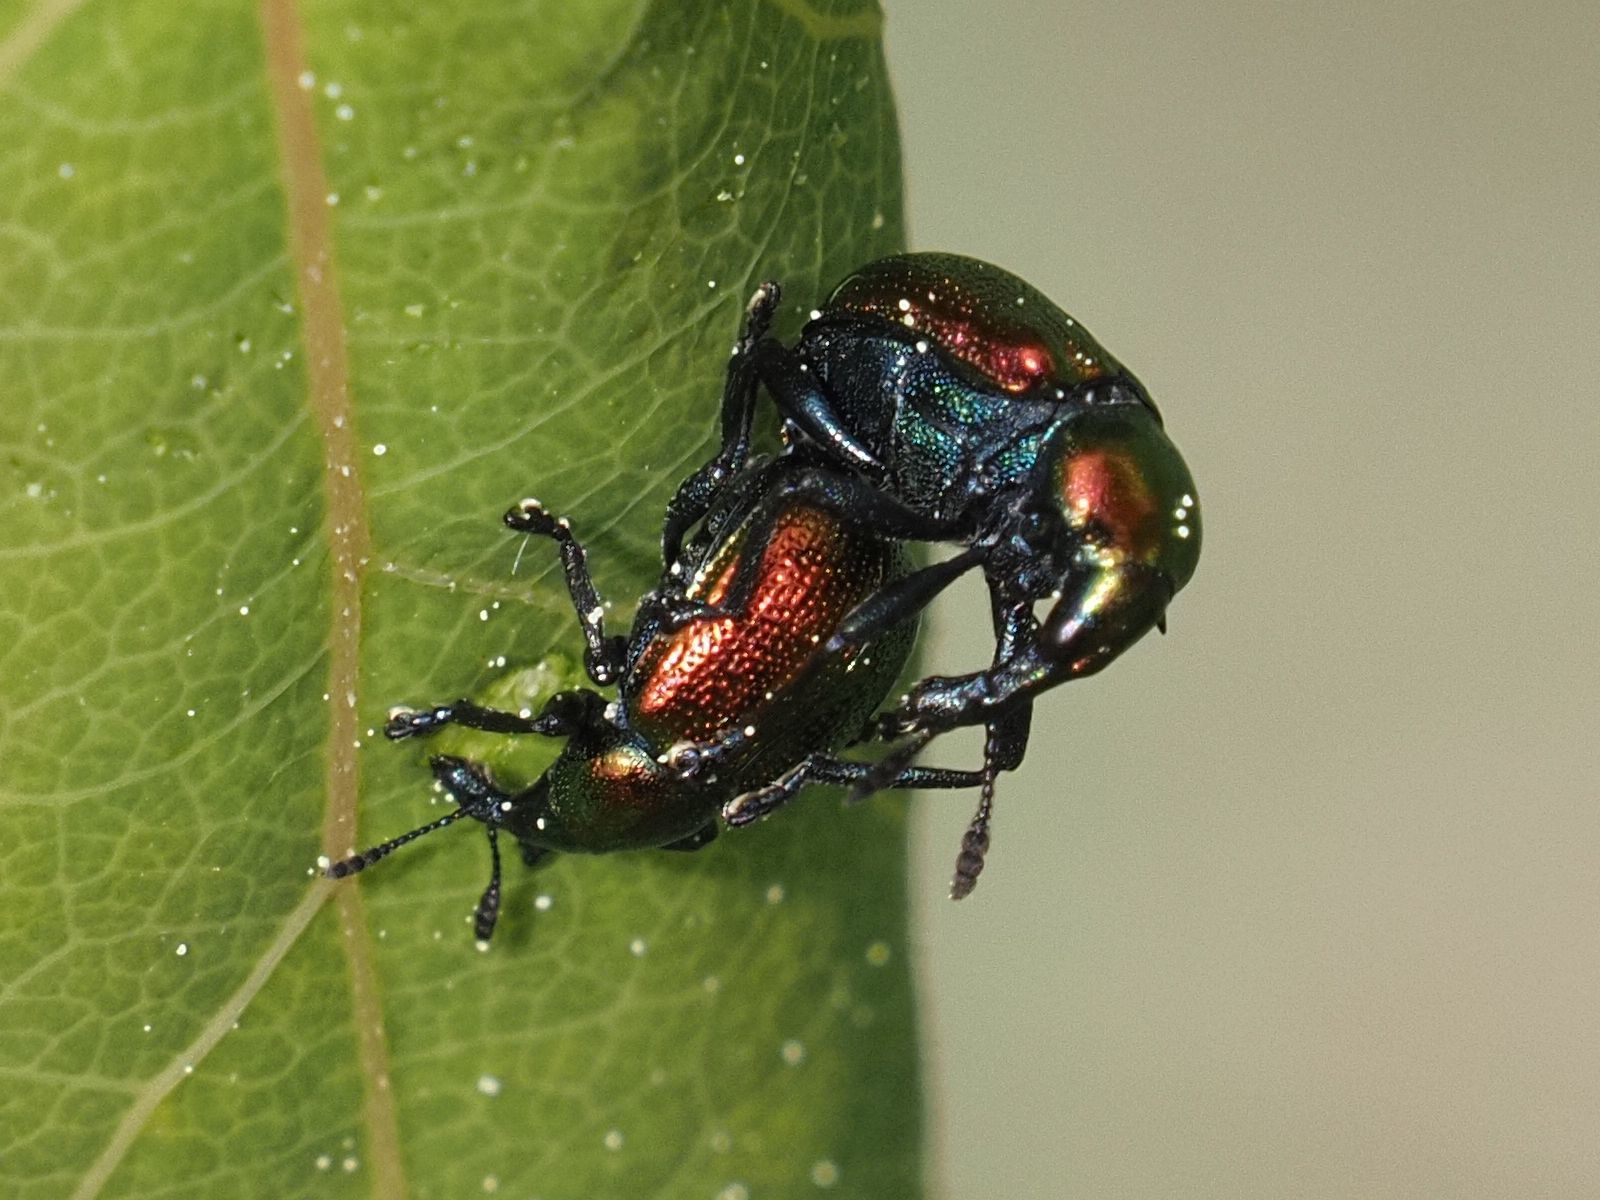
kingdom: Animalia
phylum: Arthropoda
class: Insecta
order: Coleoptera
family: Attelabidae
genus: Byctiscus
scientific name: Byctiscus populi
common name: Leaf-rolling weevil
